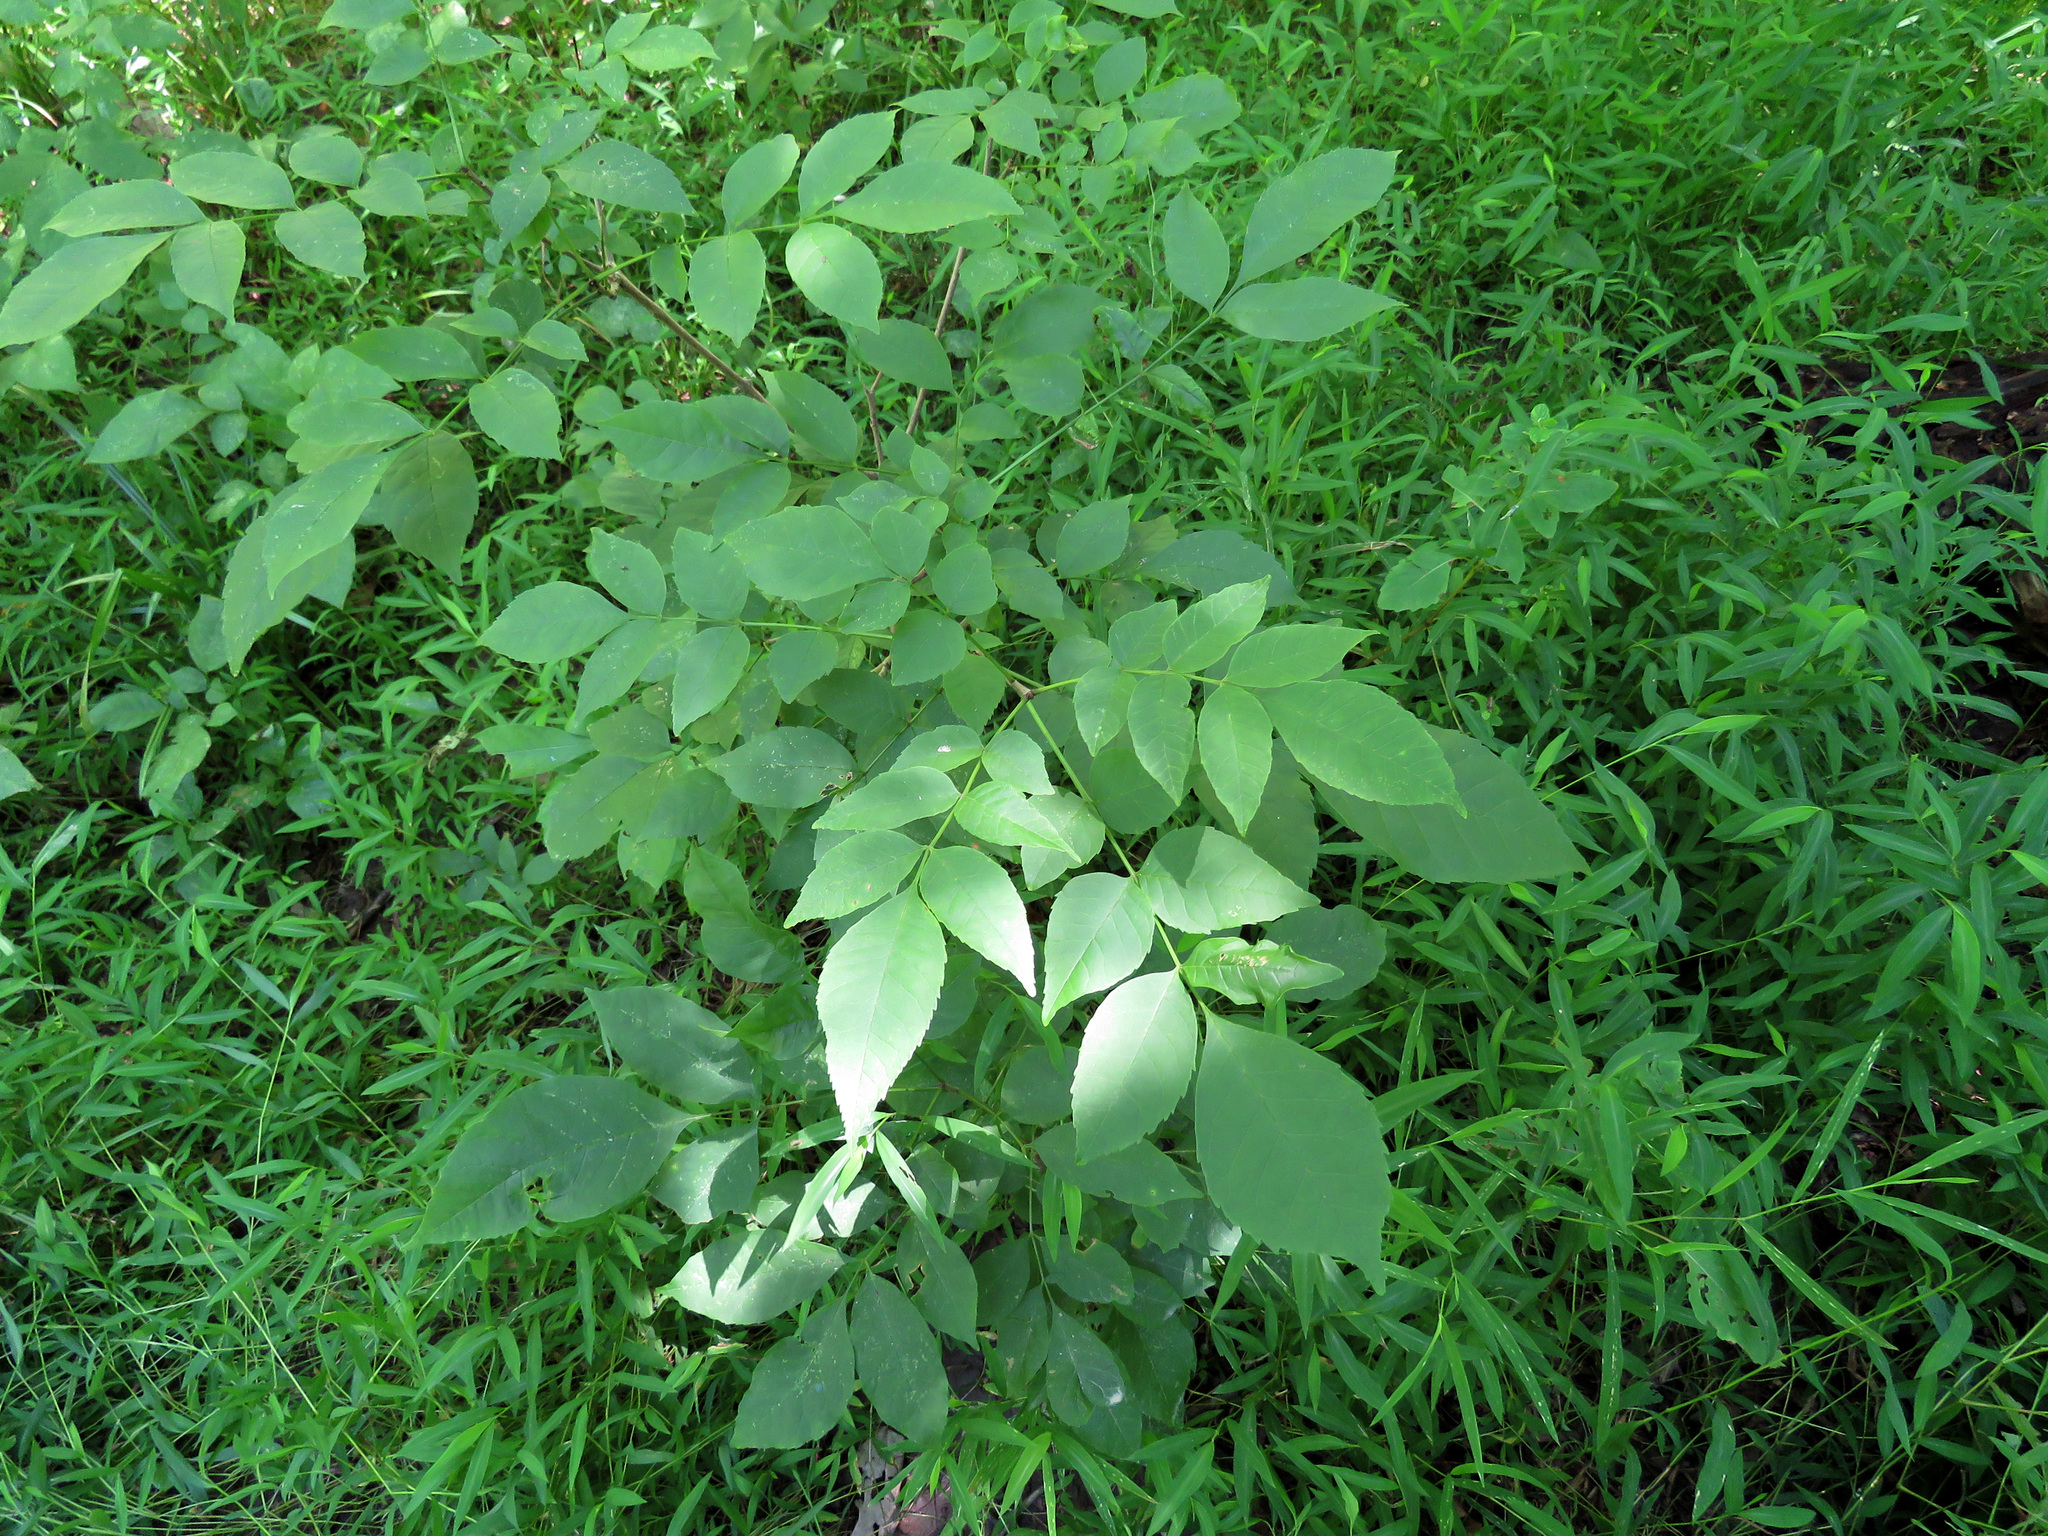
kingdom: Plantae
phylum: Tracheophyta
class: Magnoliopsida
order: Lamiales
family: Oleaceae
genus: Fraxinus
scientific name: Fraxinus pennsylvanica
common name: Green ash
